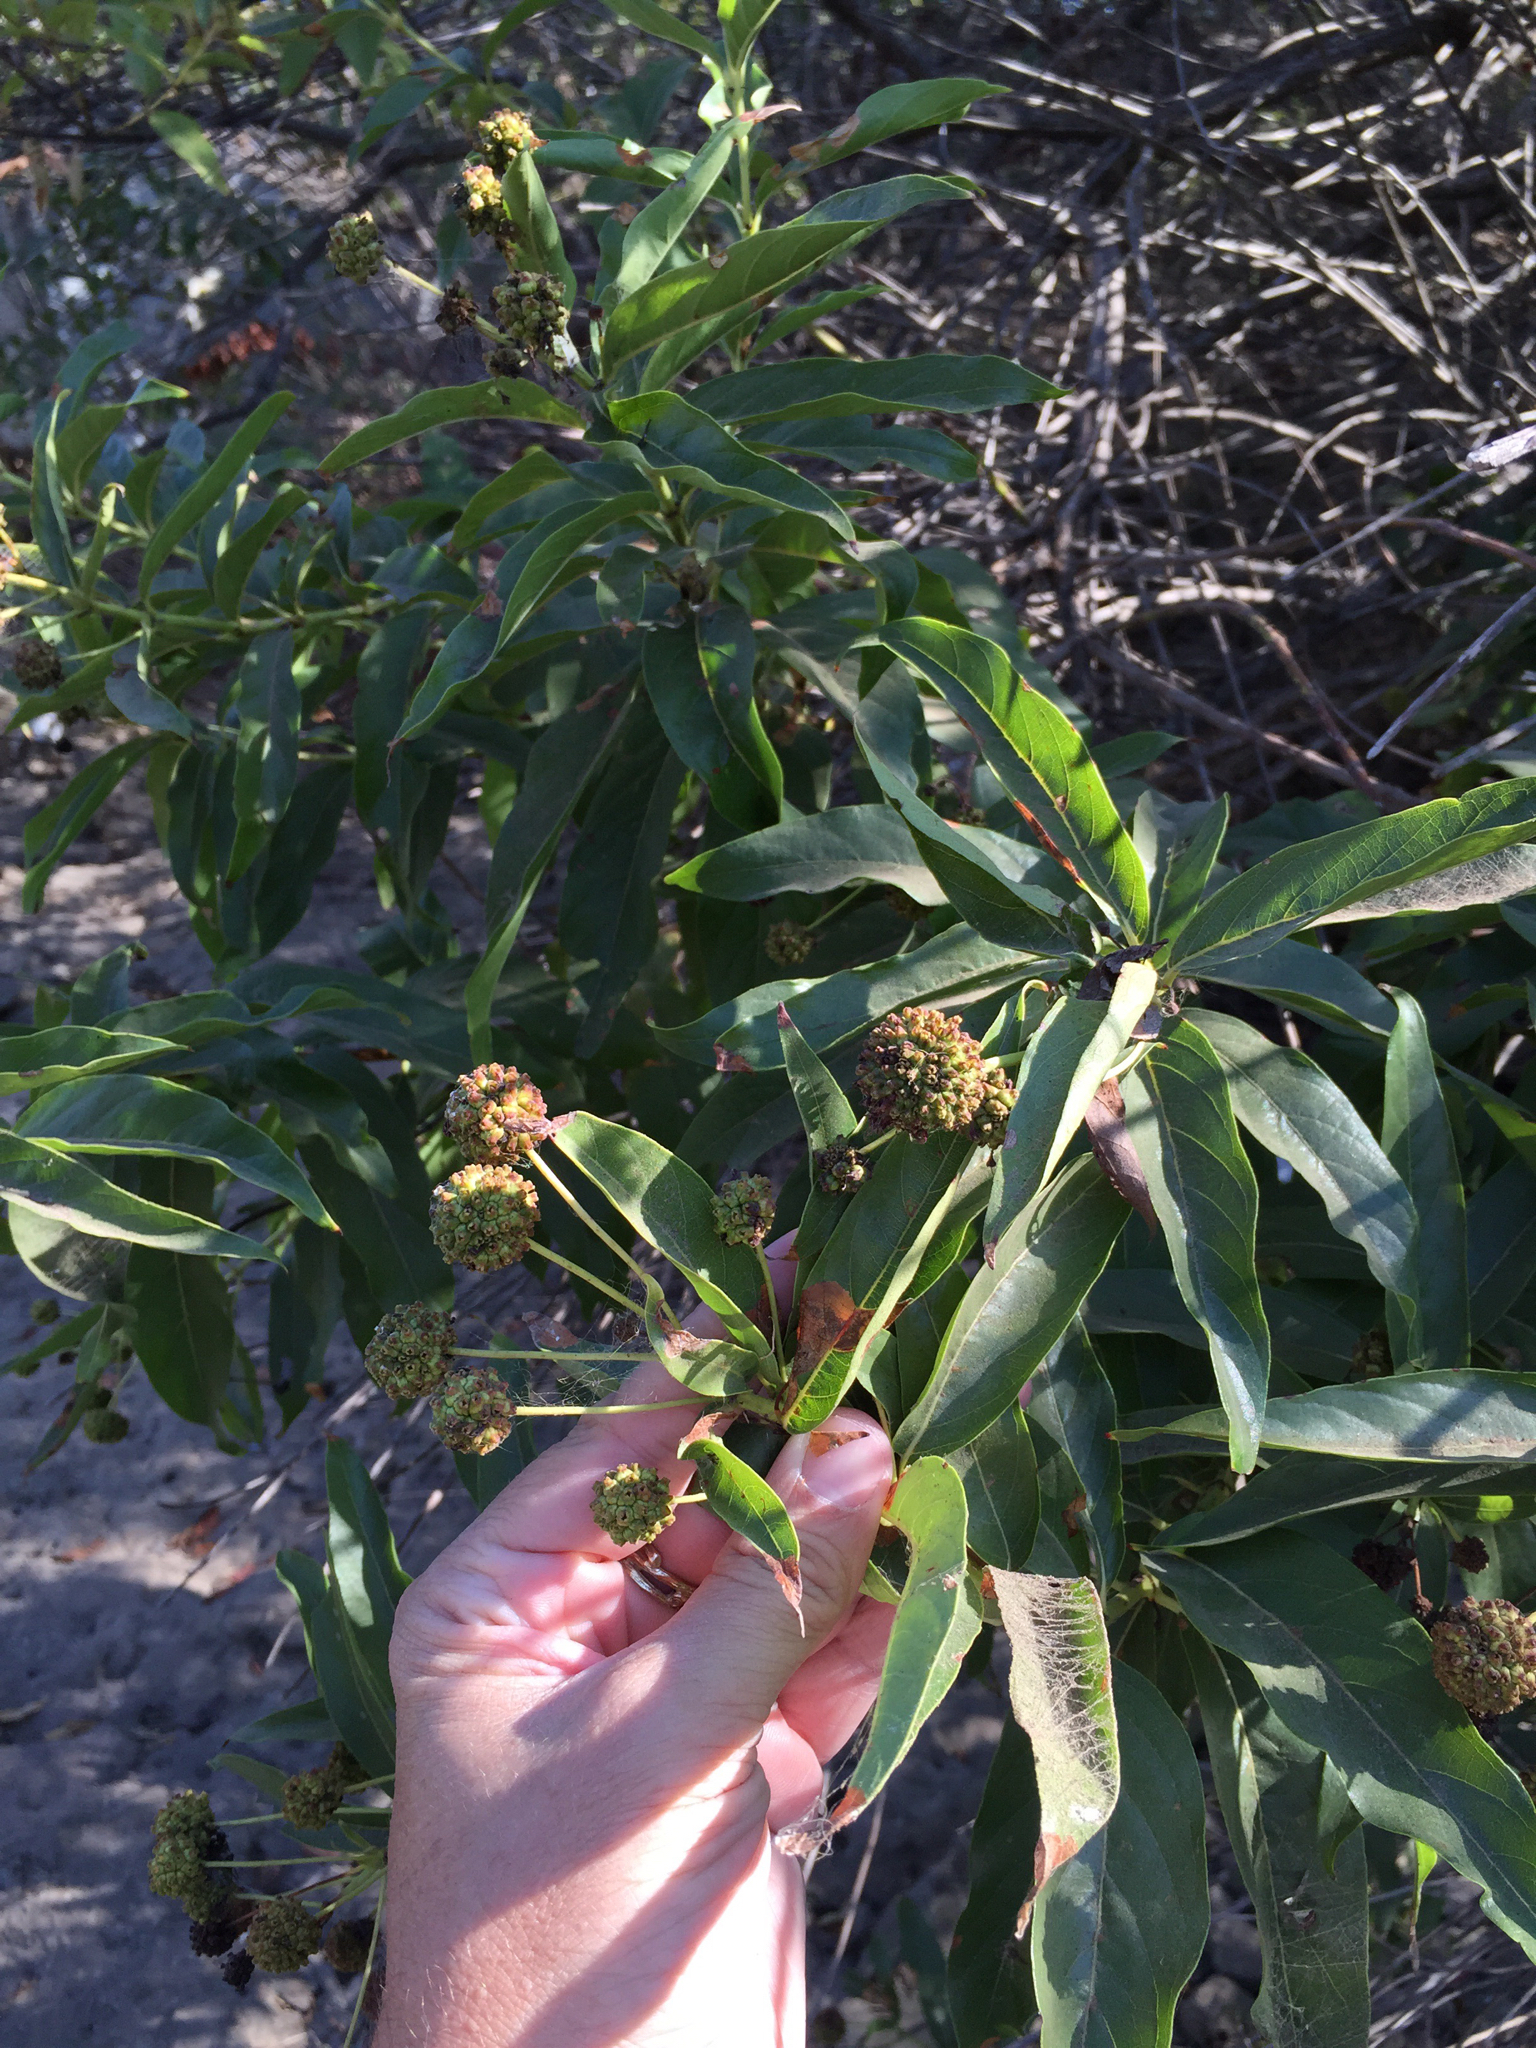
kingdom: Plantae
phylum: Tracheophyta
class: Magnoliopsida
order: Gentianales
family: Rubiaceae
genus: Cephalanthus
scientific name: Cephalanthus occidentalis
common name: Button-willow
